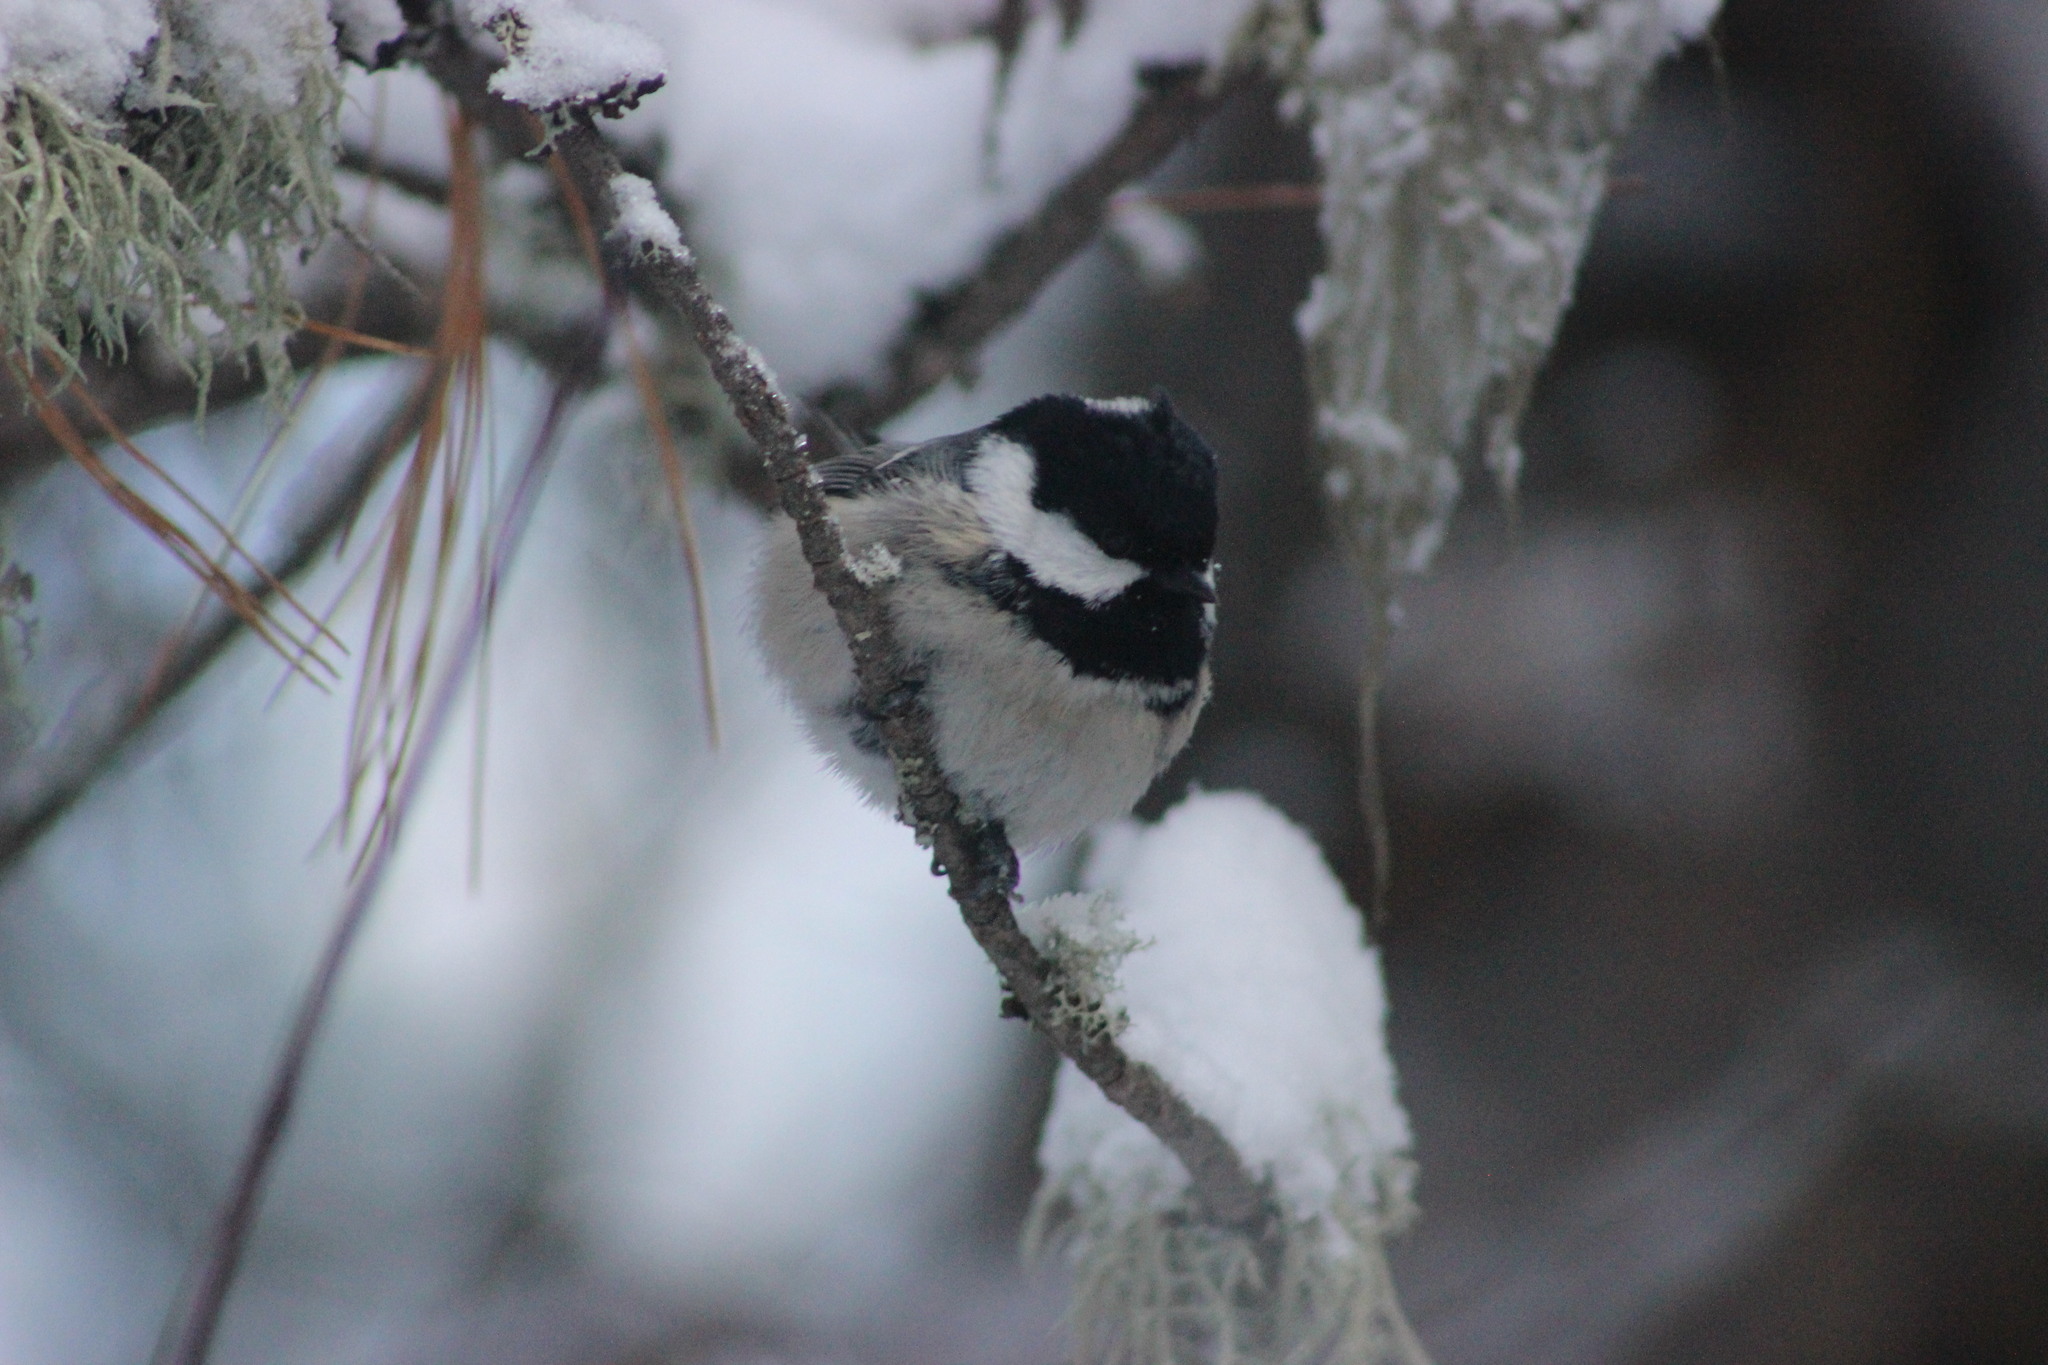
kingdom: Animalia
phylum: Chordata
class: Aves
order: Passeriformes
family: Paridae
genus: Periparus
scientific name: Periparus ater
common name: Coal tit
